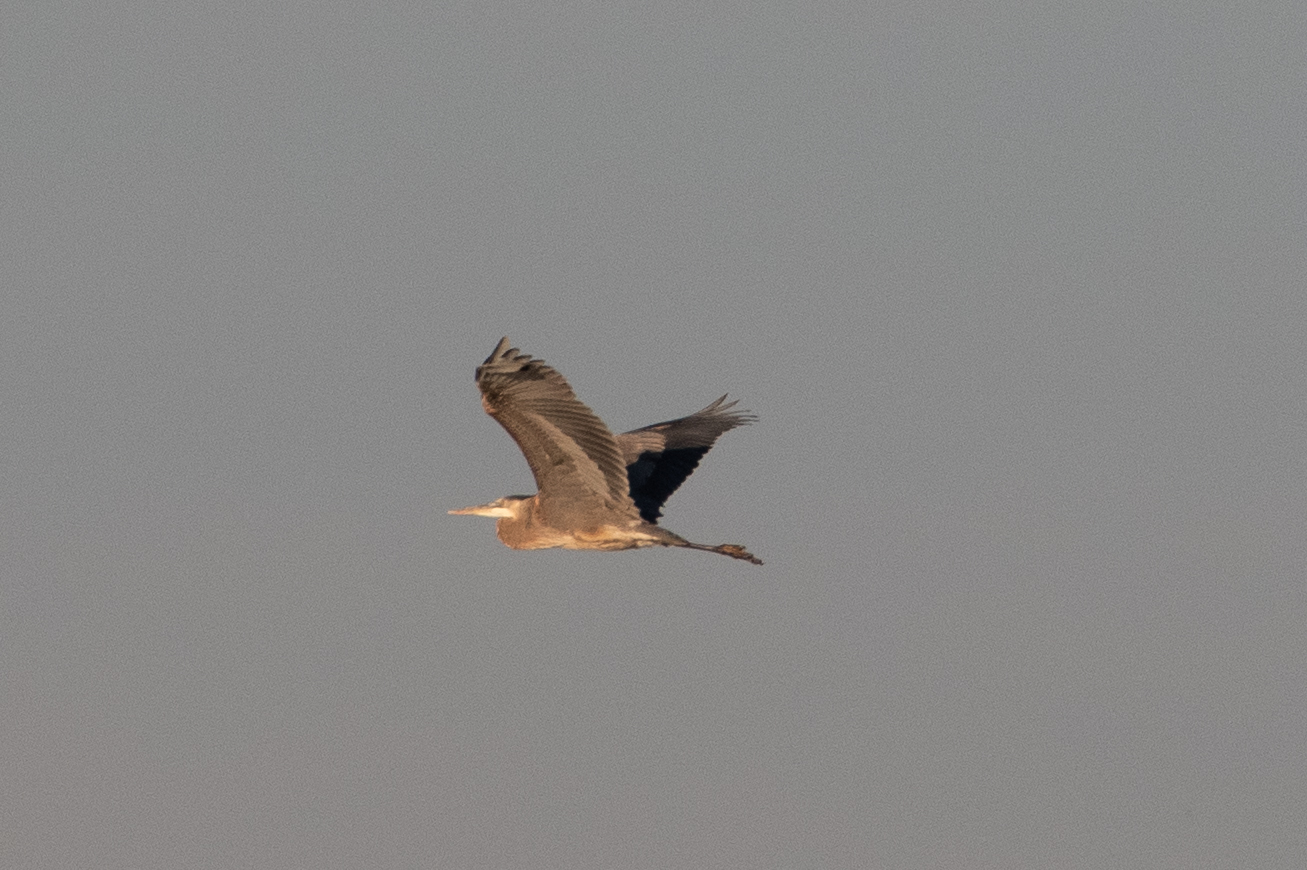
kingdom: Animalia
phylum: Chordata
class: Aves
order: Pelecaniformes
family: Ardeidae
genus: Ardea
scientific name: Ardea herodias
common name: Great blue heron
